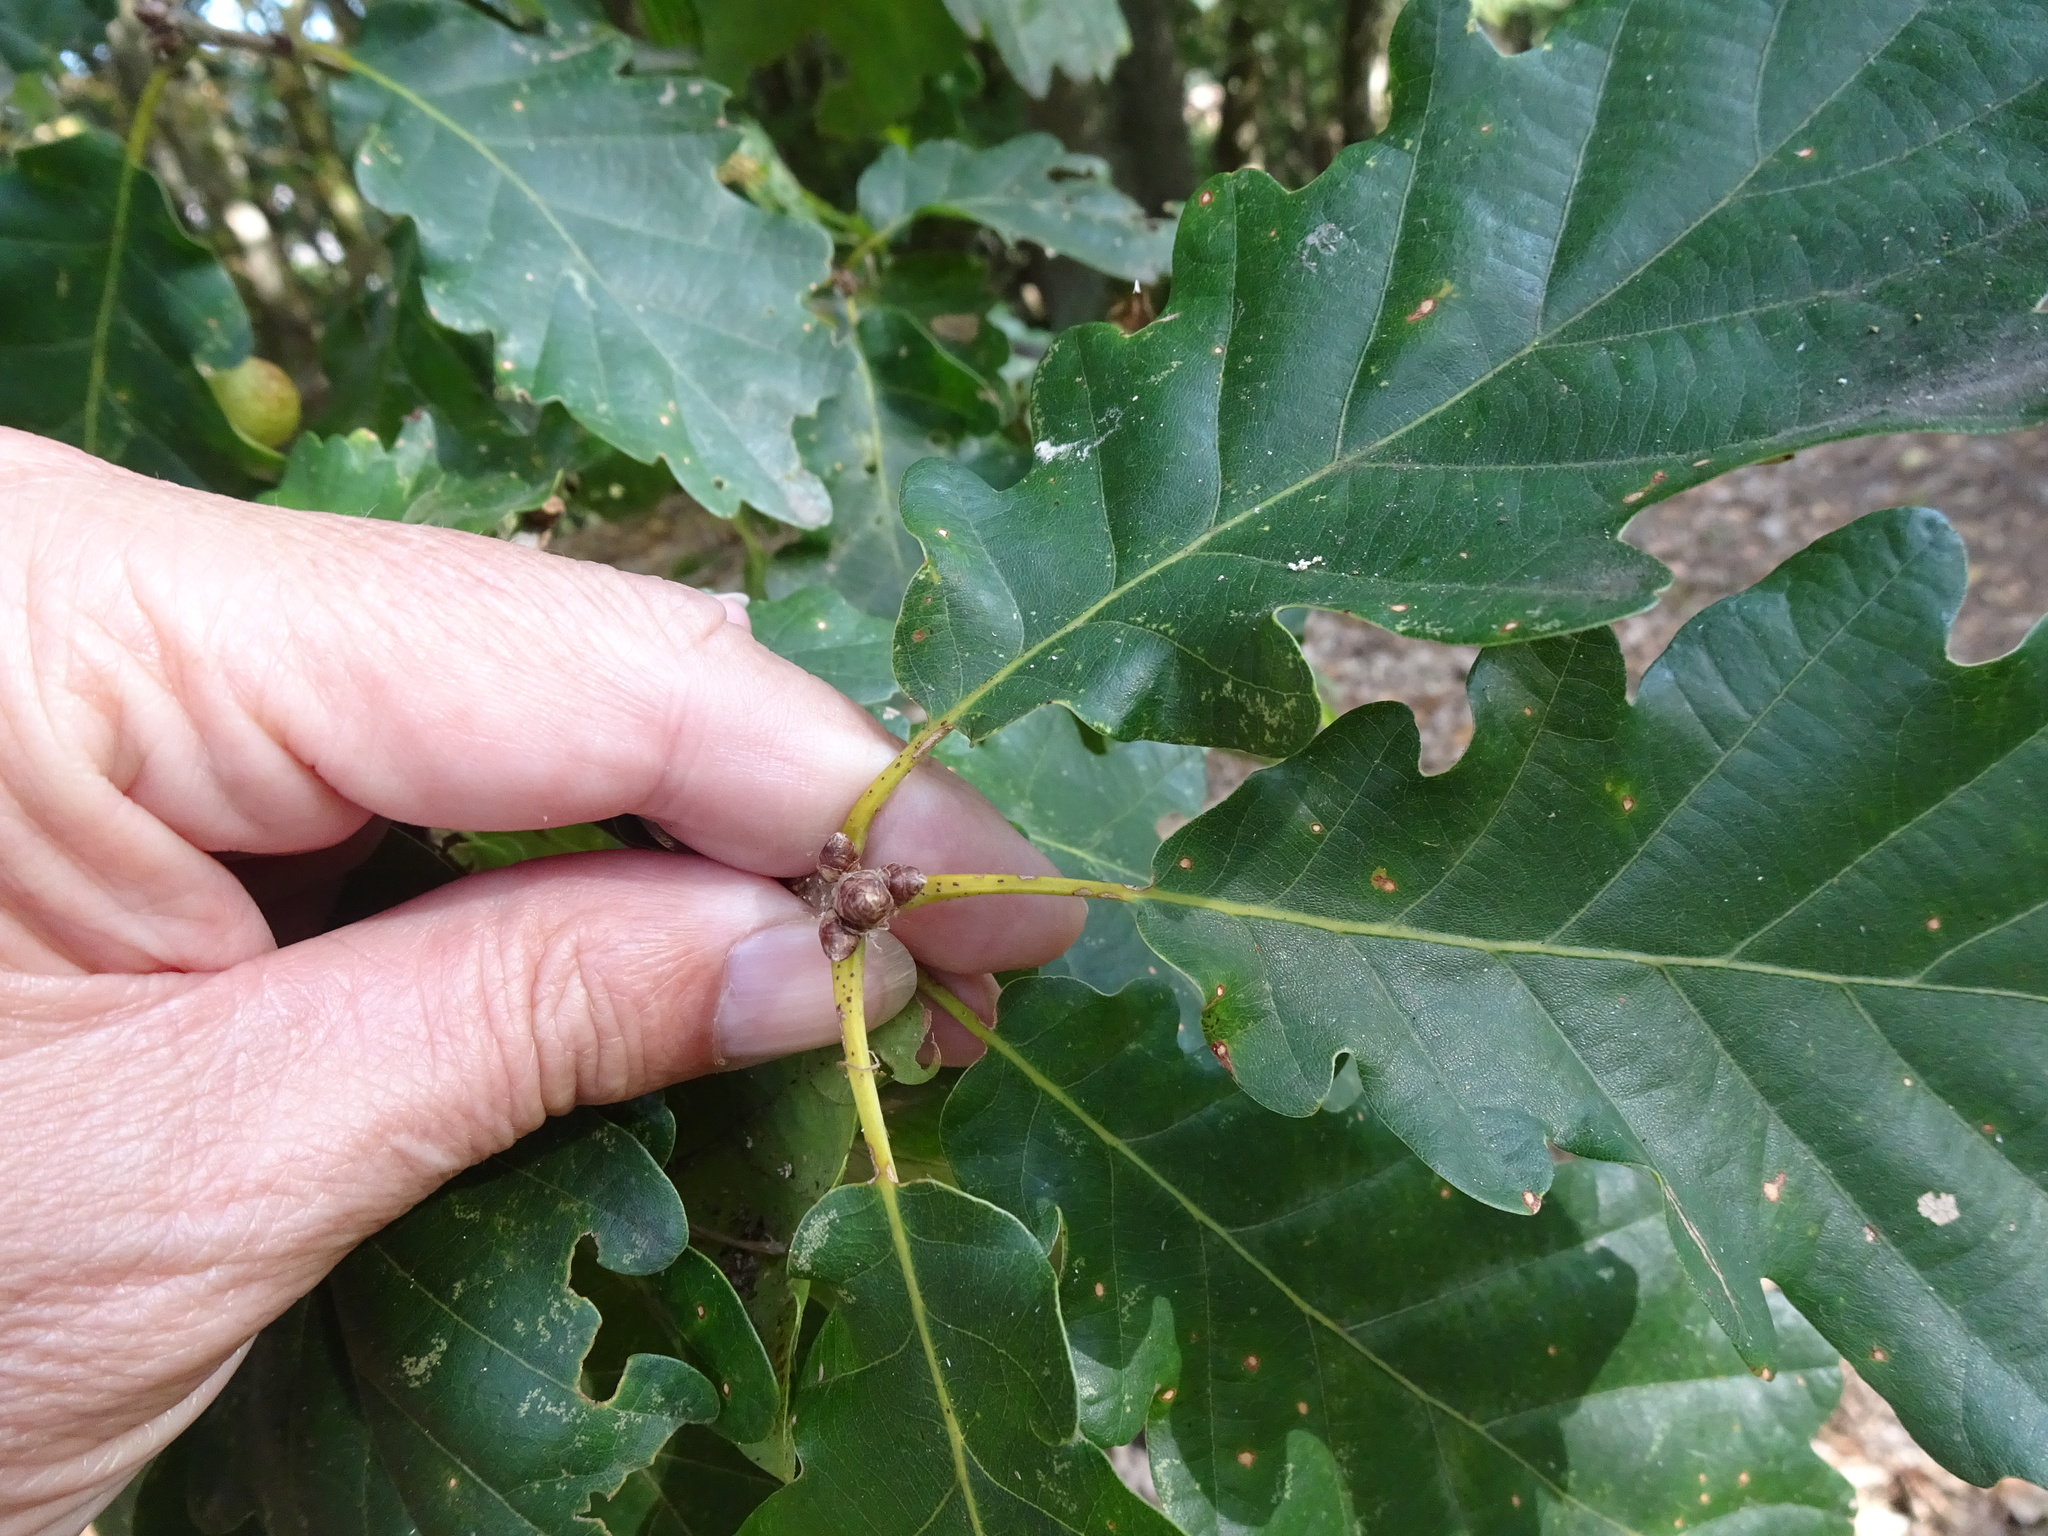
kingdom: Plantae
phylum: Tracheophyta
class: Magnoliopsida
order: Fagales
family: Fagaceae
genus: Quercus
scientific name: Quercus petraea
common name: Sessile oak
